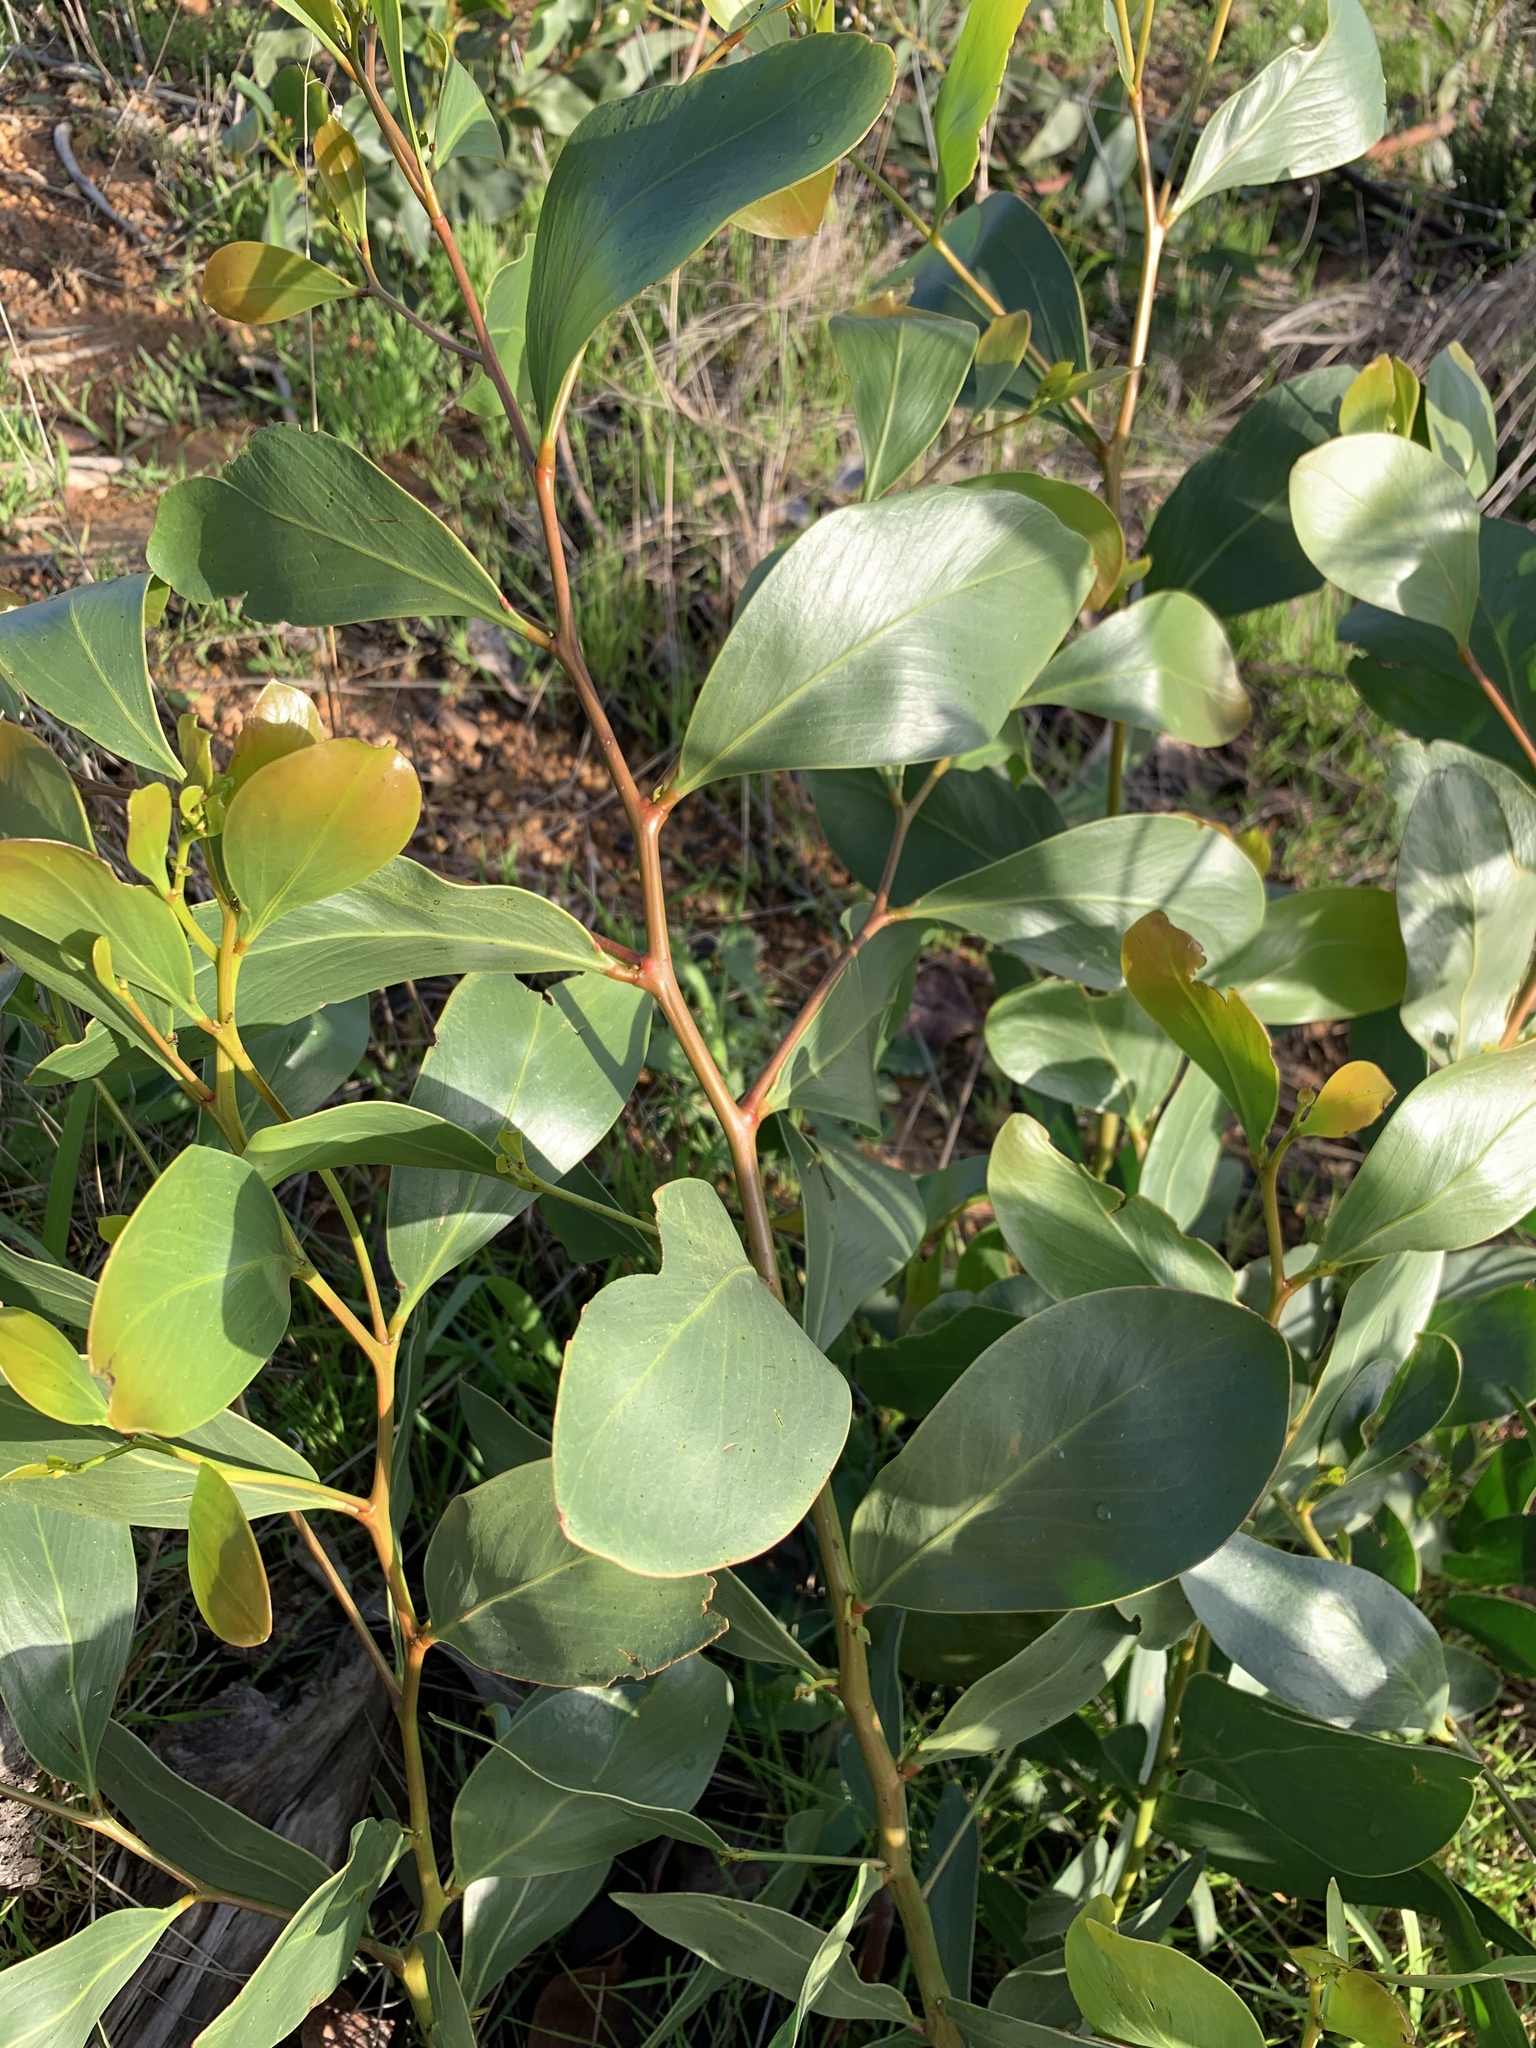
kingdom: Plantae
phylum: Tracheophyta
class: Magnoliopsida
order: Fabales
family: Fabaceae
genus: Acacia
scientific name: Acacia pycnantha
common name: Golden wattle
